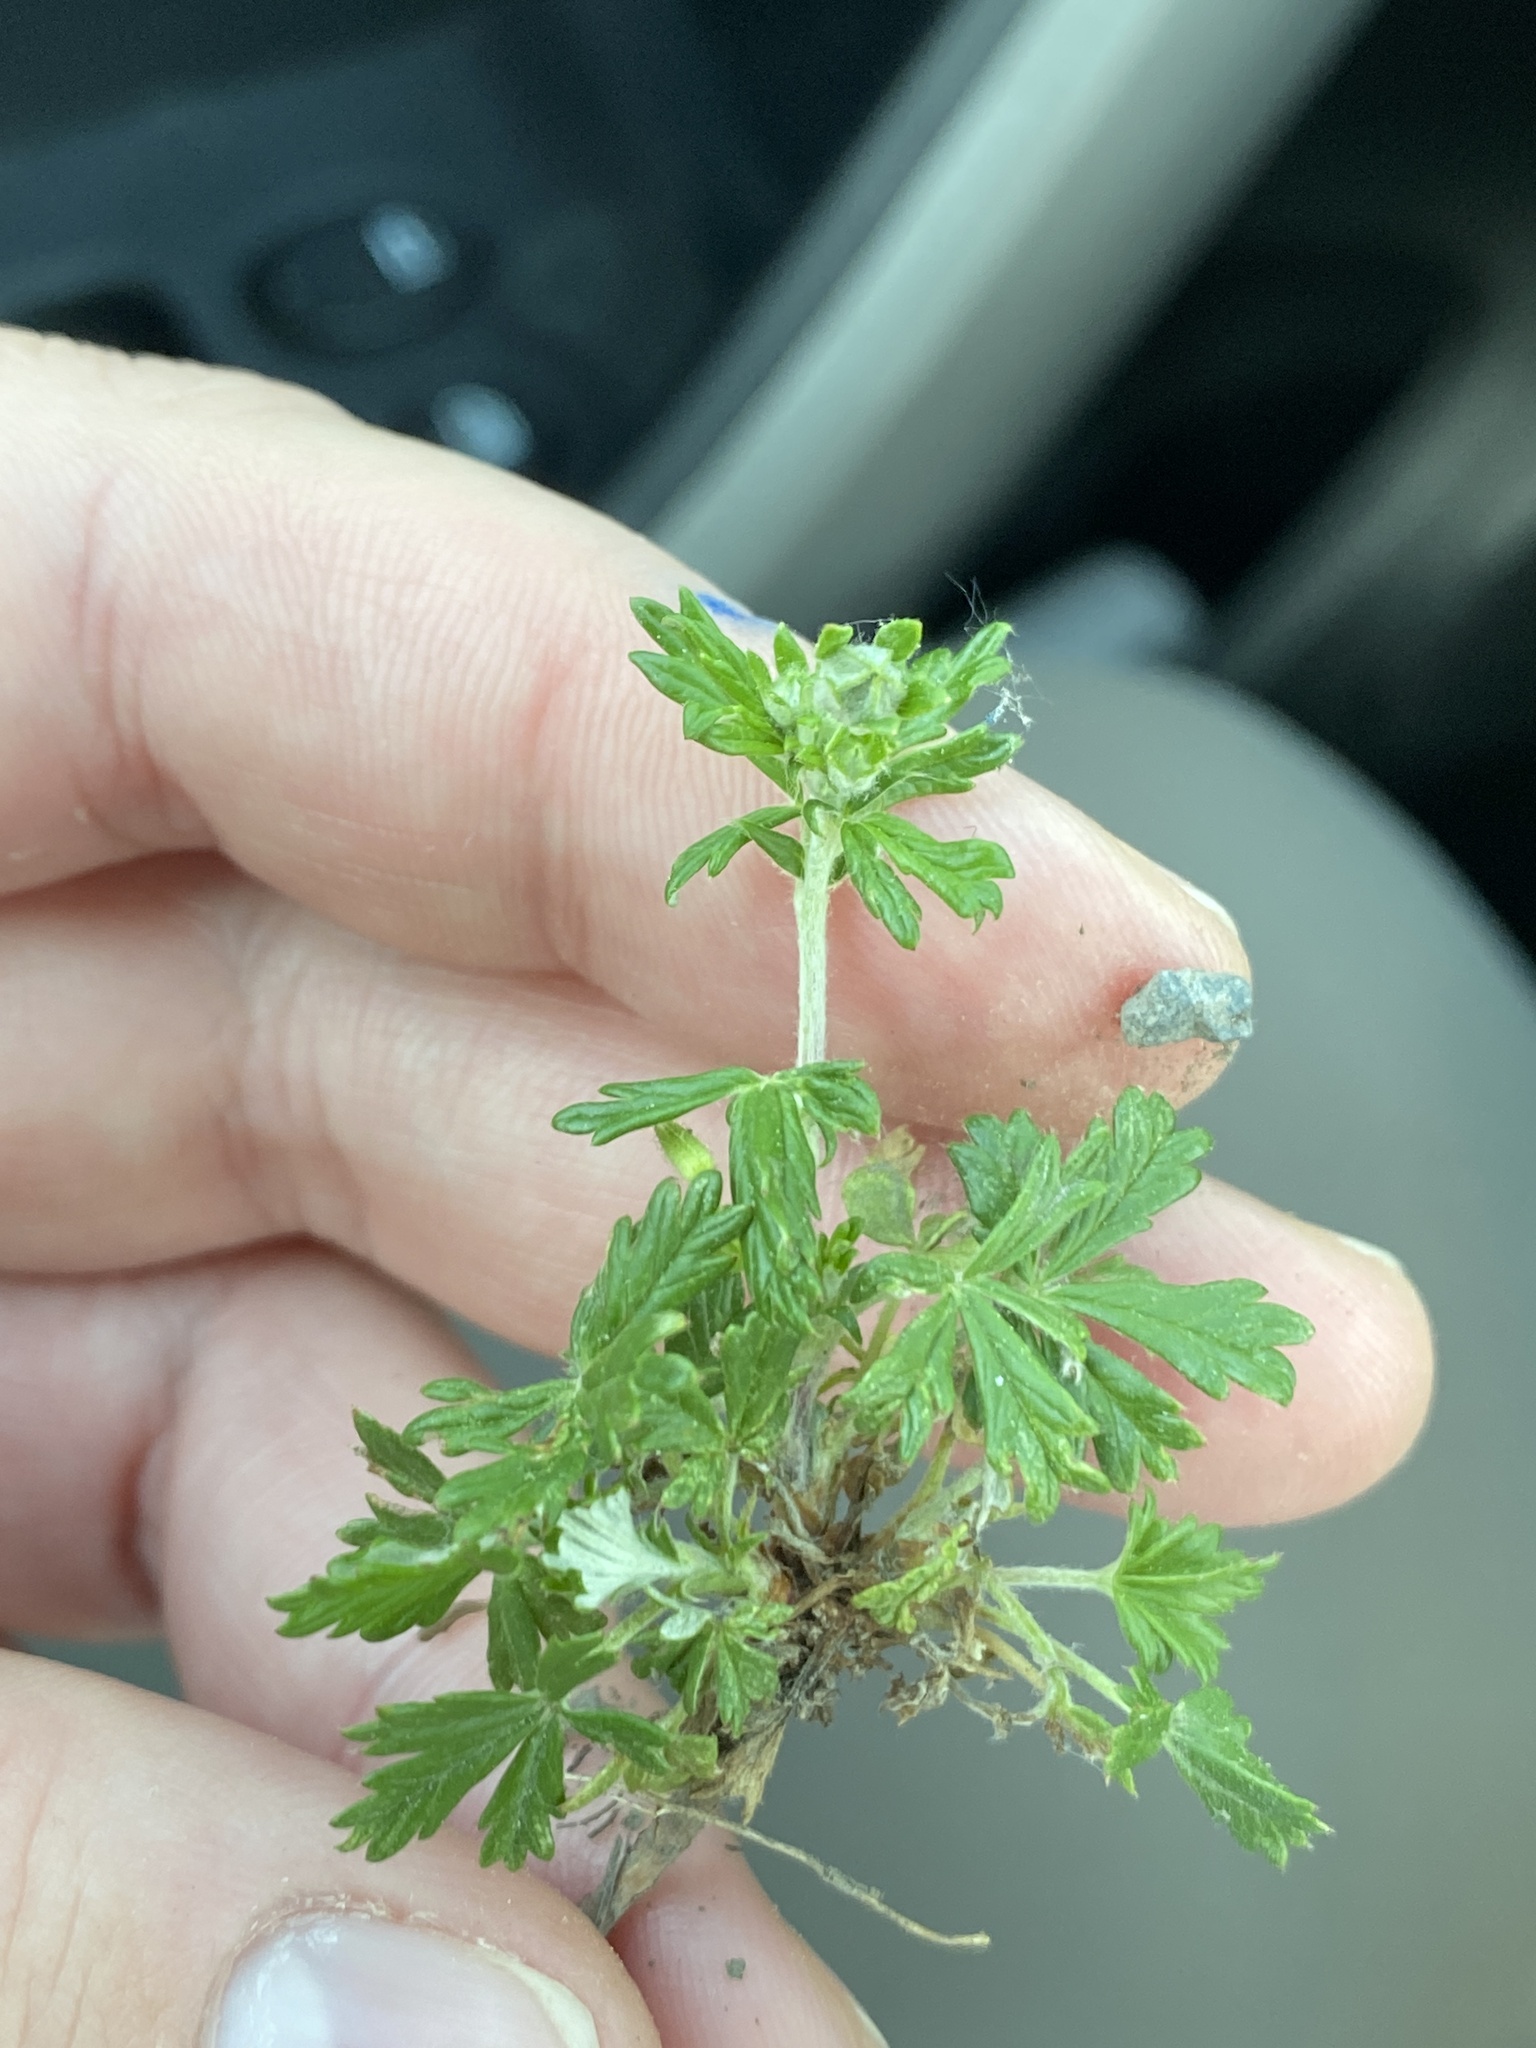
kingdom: Plantae
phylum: Tracheophyta
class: Magnoliopsida
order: Rosales
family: Rosaceae
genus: Potentilla
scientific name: Potentilla argentea
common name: Hoary cinquefoil
